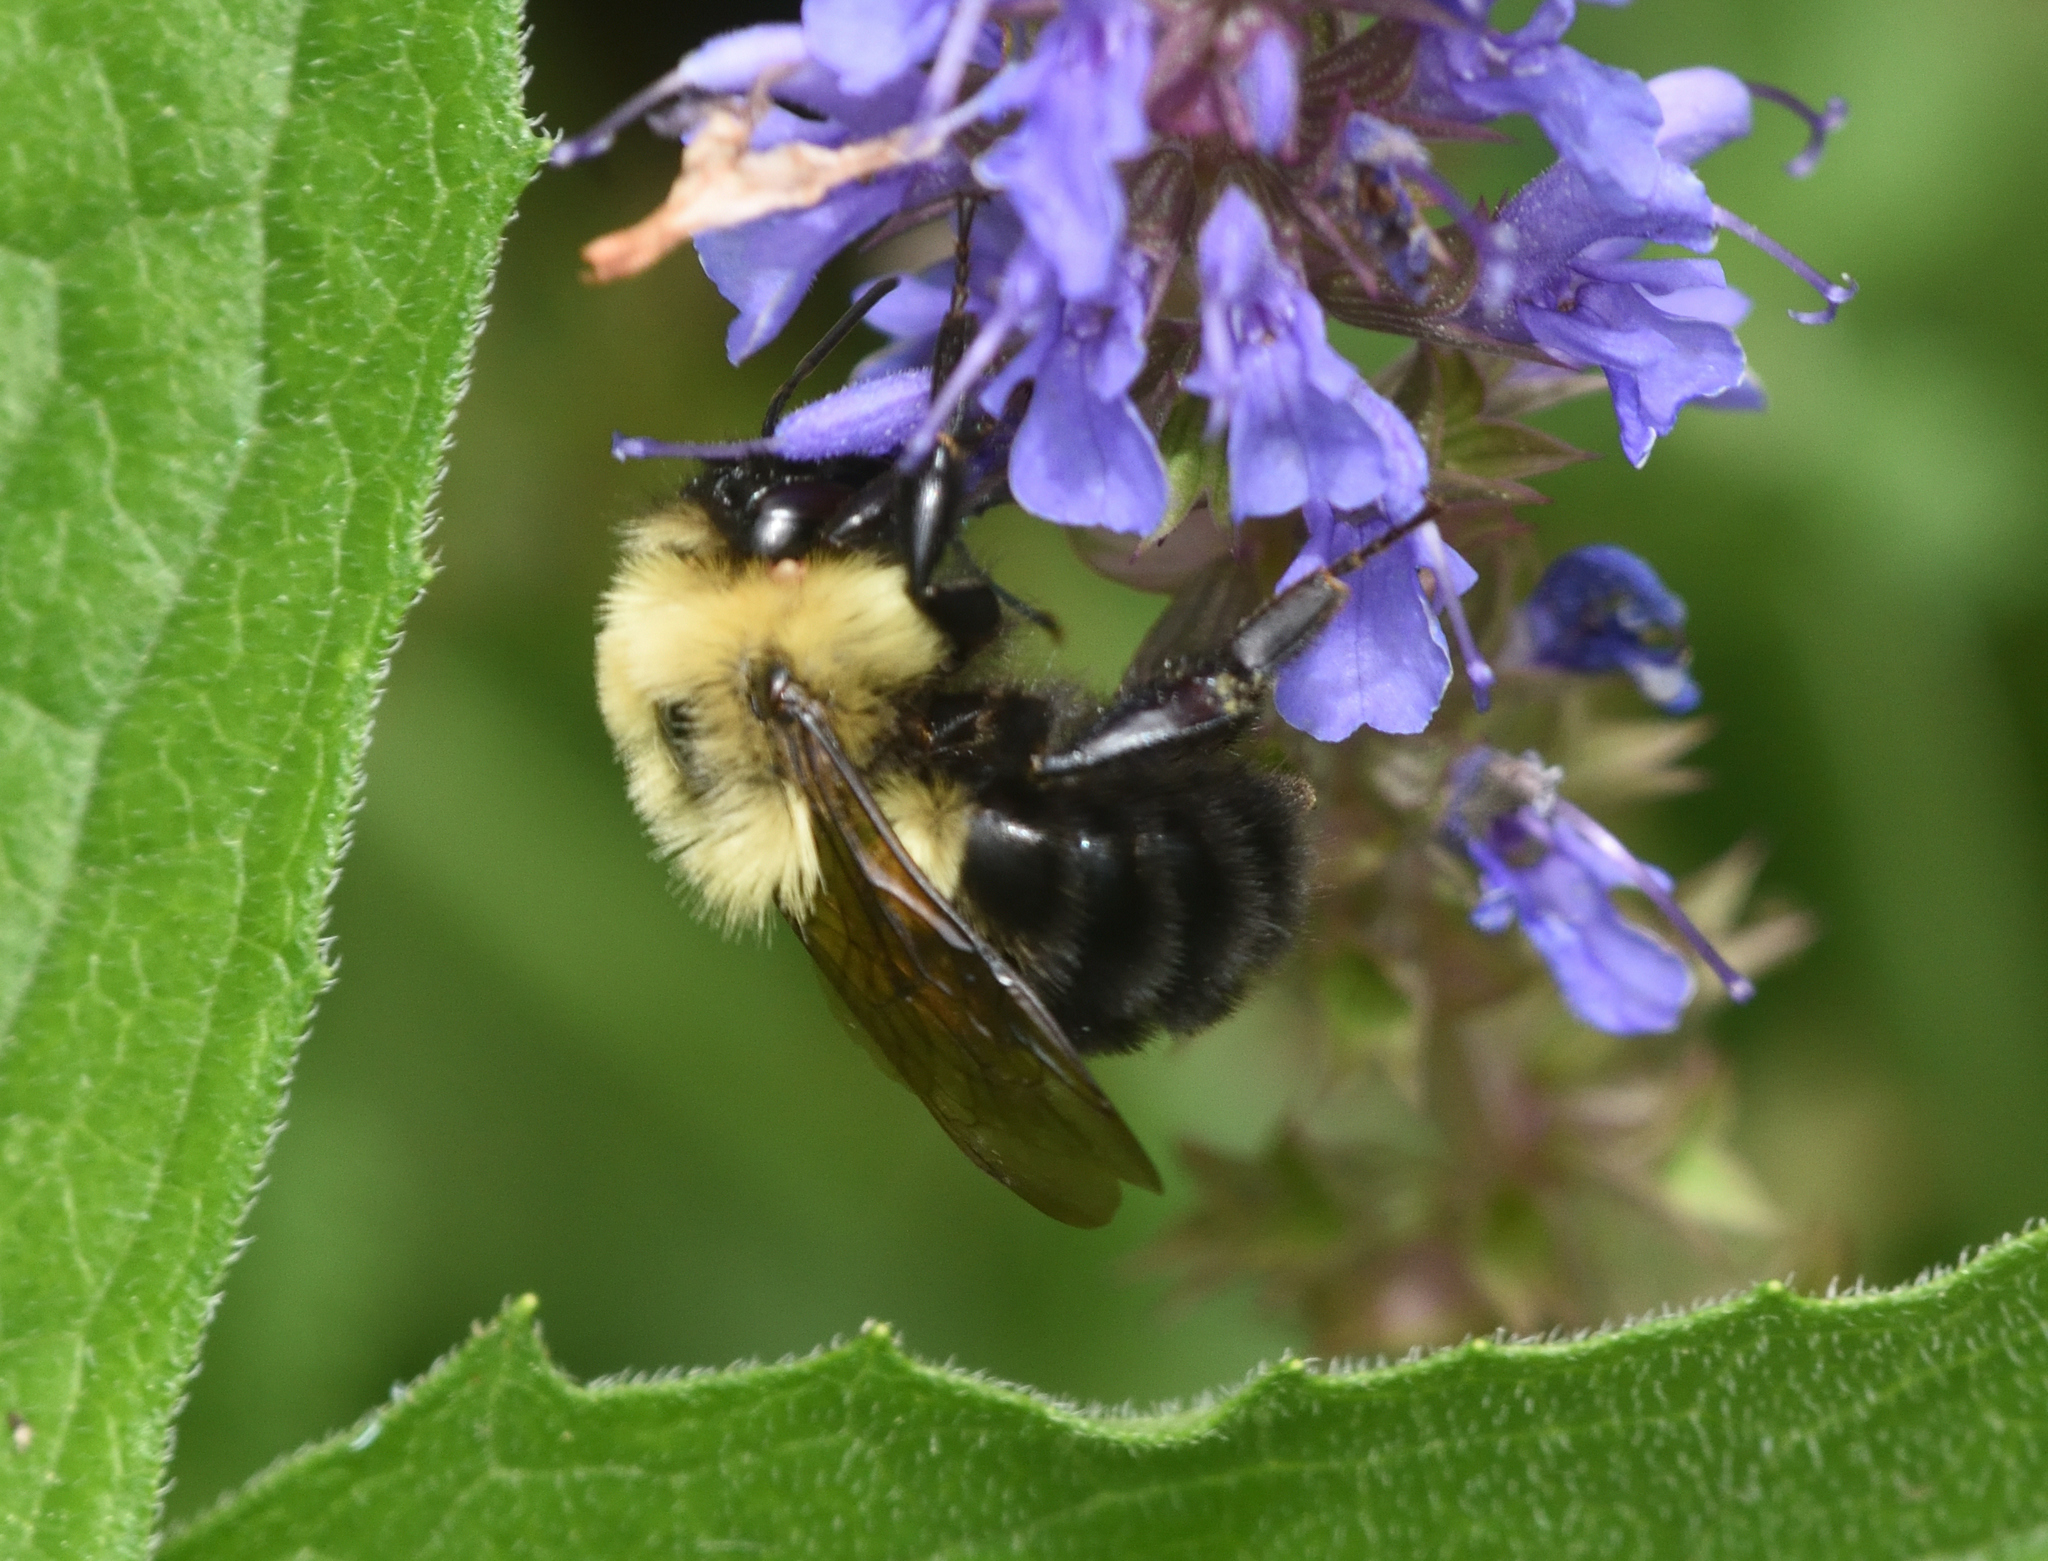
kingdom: Animalia
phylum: Arthropoda
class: Insecta
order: Hymenoptera
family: Apidae
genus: Bombus
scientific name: Bombus bimaculatus
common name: Two-spotted bumble bee
